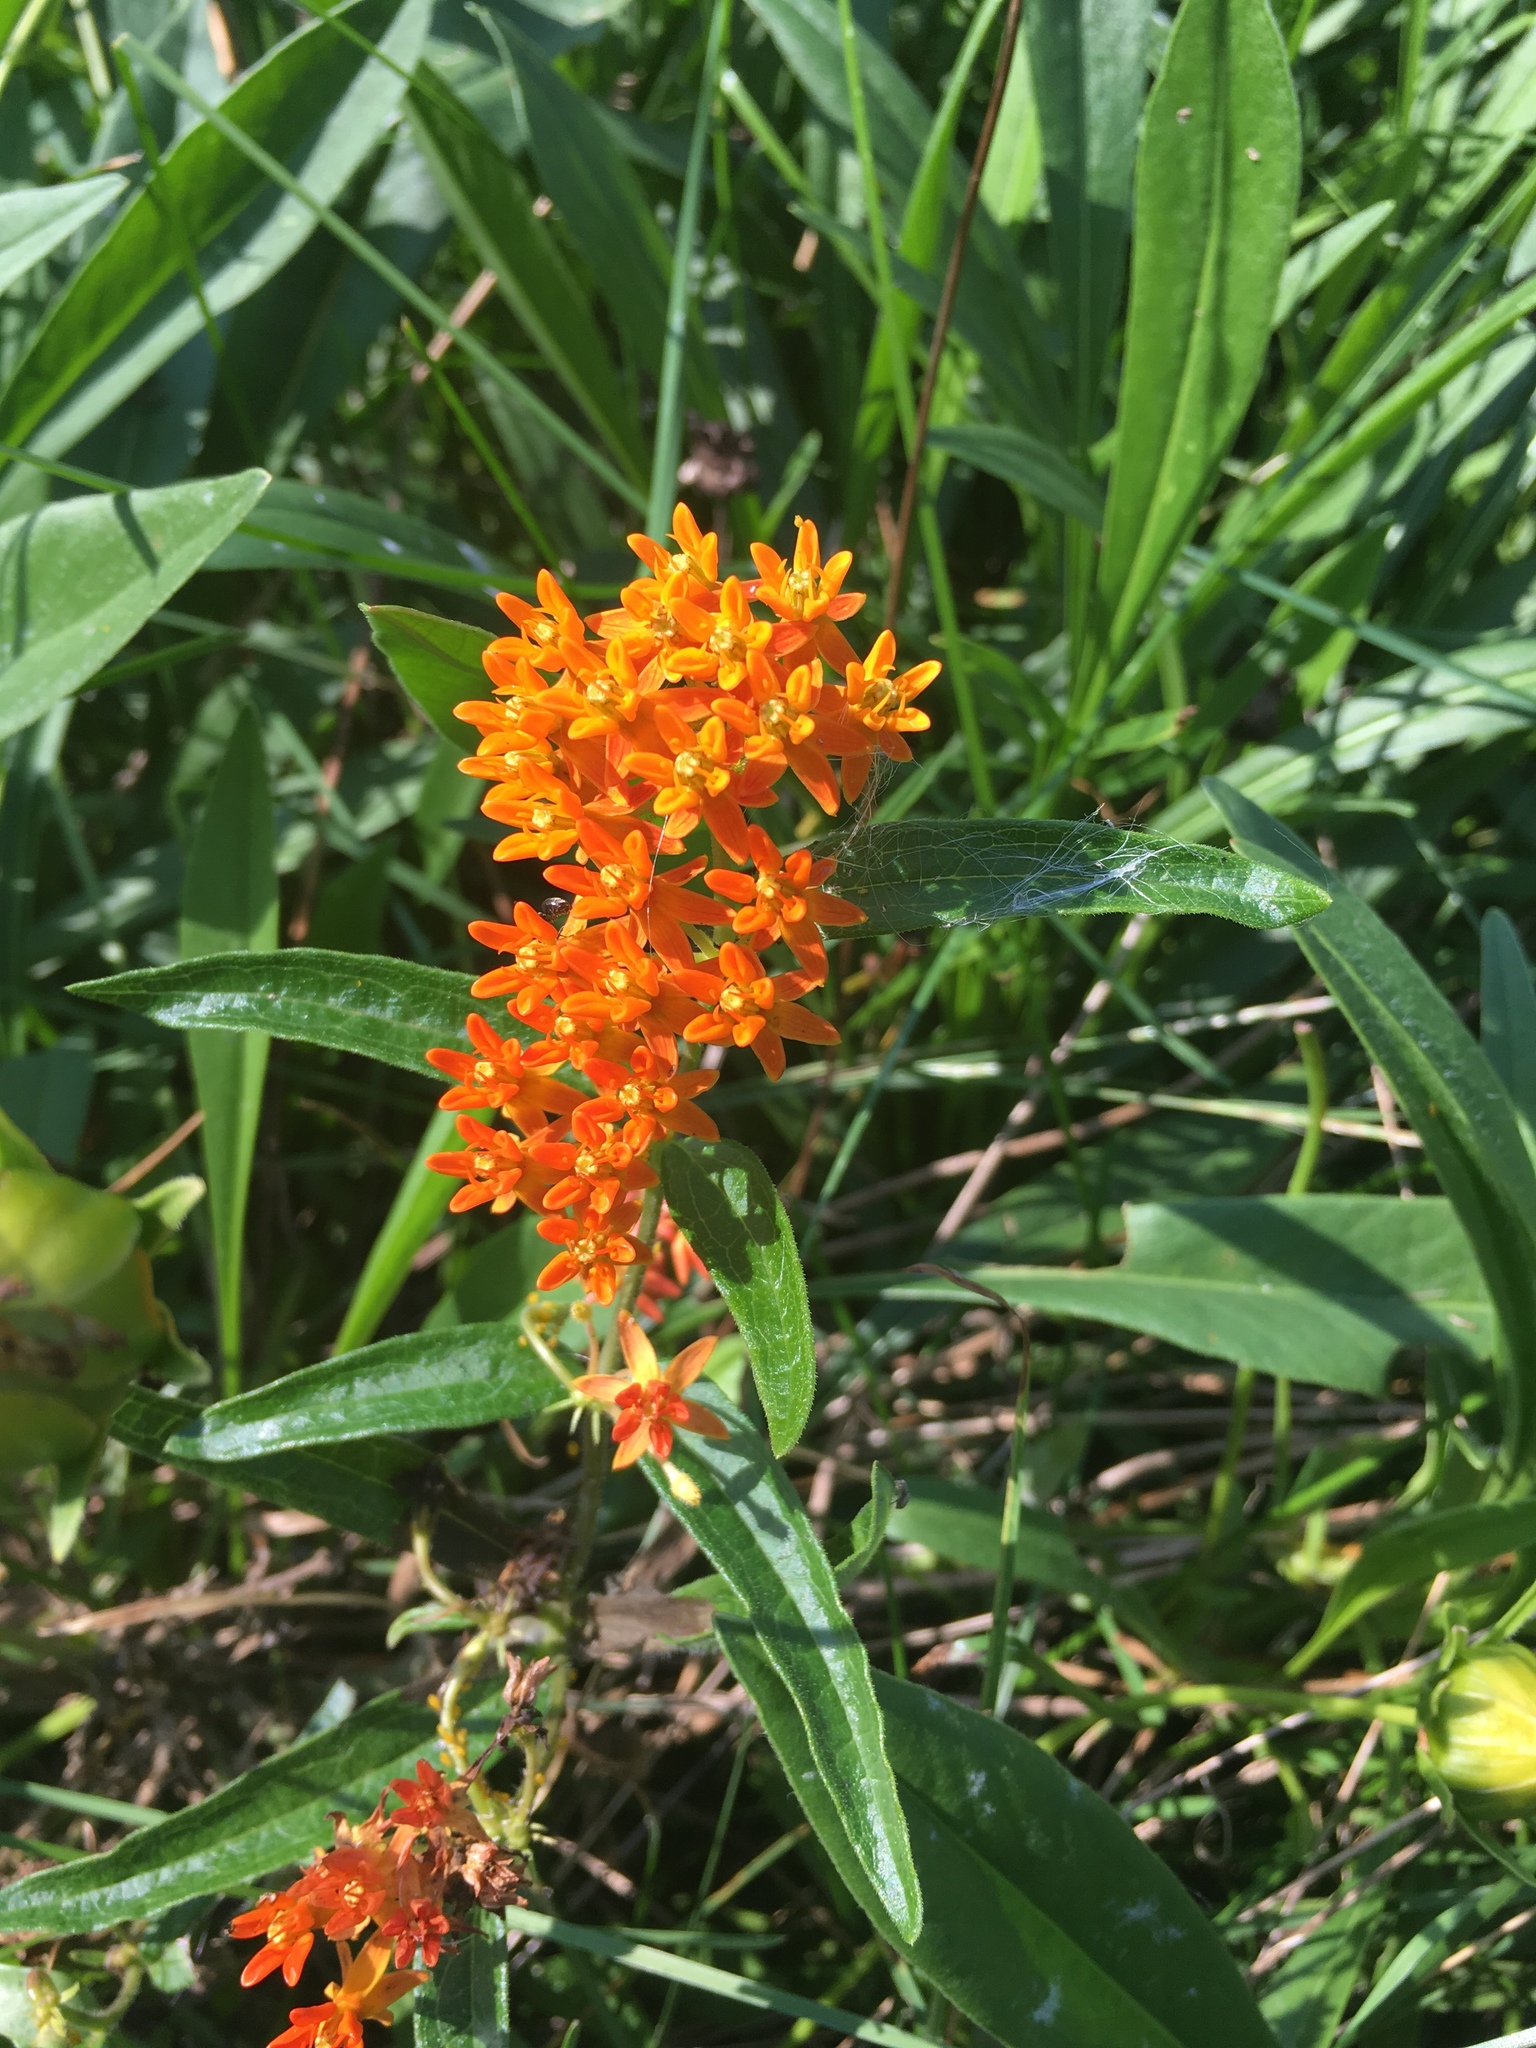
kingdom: Plantae
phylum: Tracheophyta
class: Magnoliopsida
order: Gentianales
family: Apocynaceae
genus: Asclepias
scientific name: Asclepias tuberosa
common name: Butterfly milkweed
